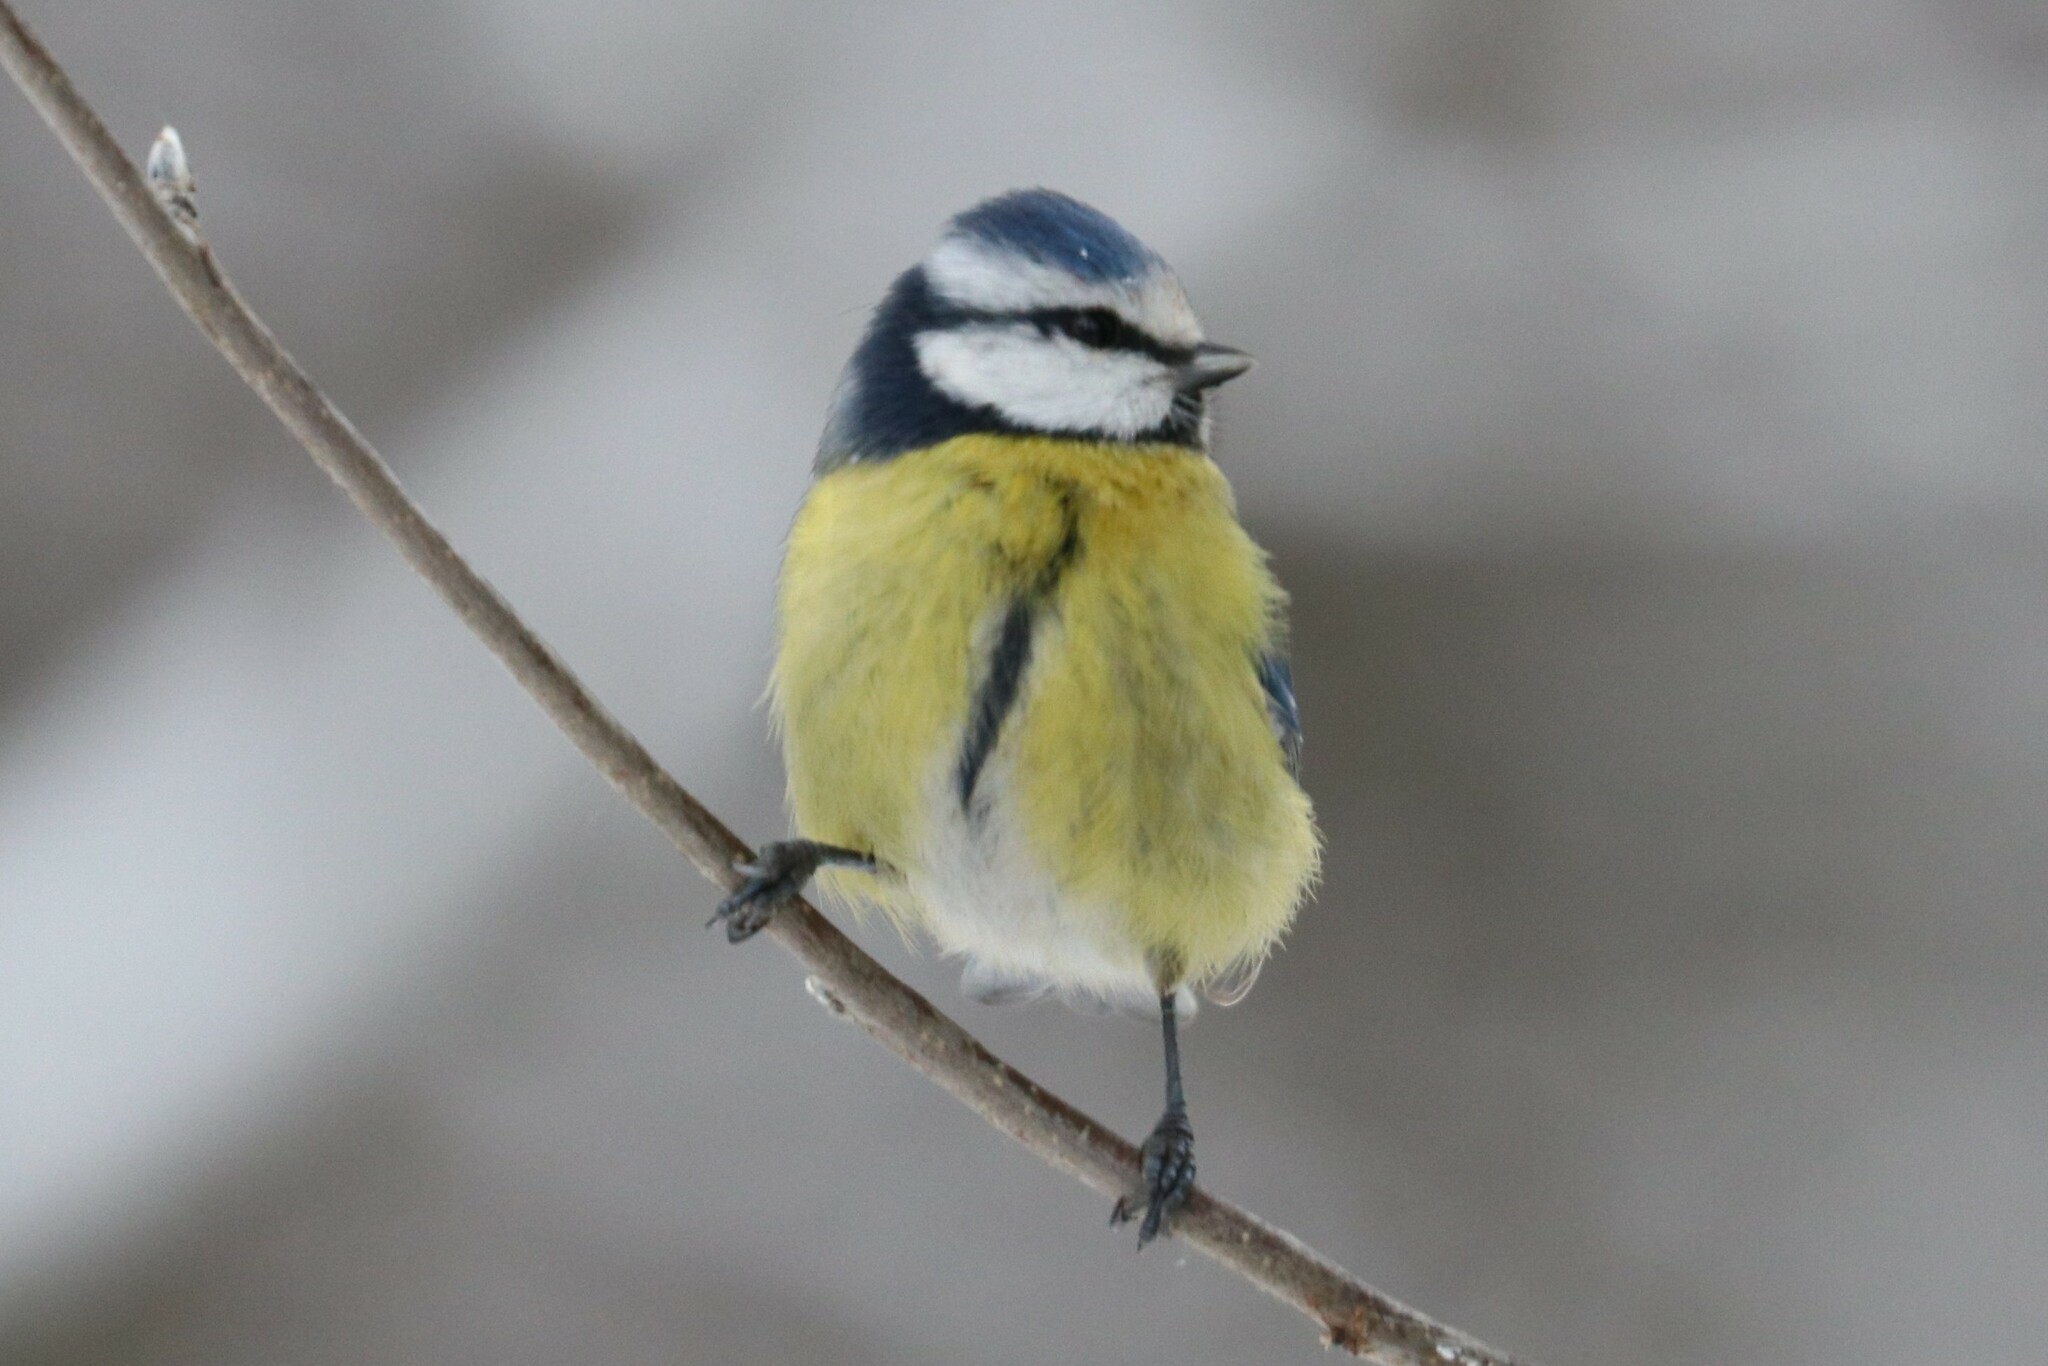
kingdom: Animalia
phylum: Chordata
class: Aves
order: Passeriformes
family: Paridae
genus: Cyanistes
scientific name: Cyanistes caeruleus
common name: Eurasian blue tit
